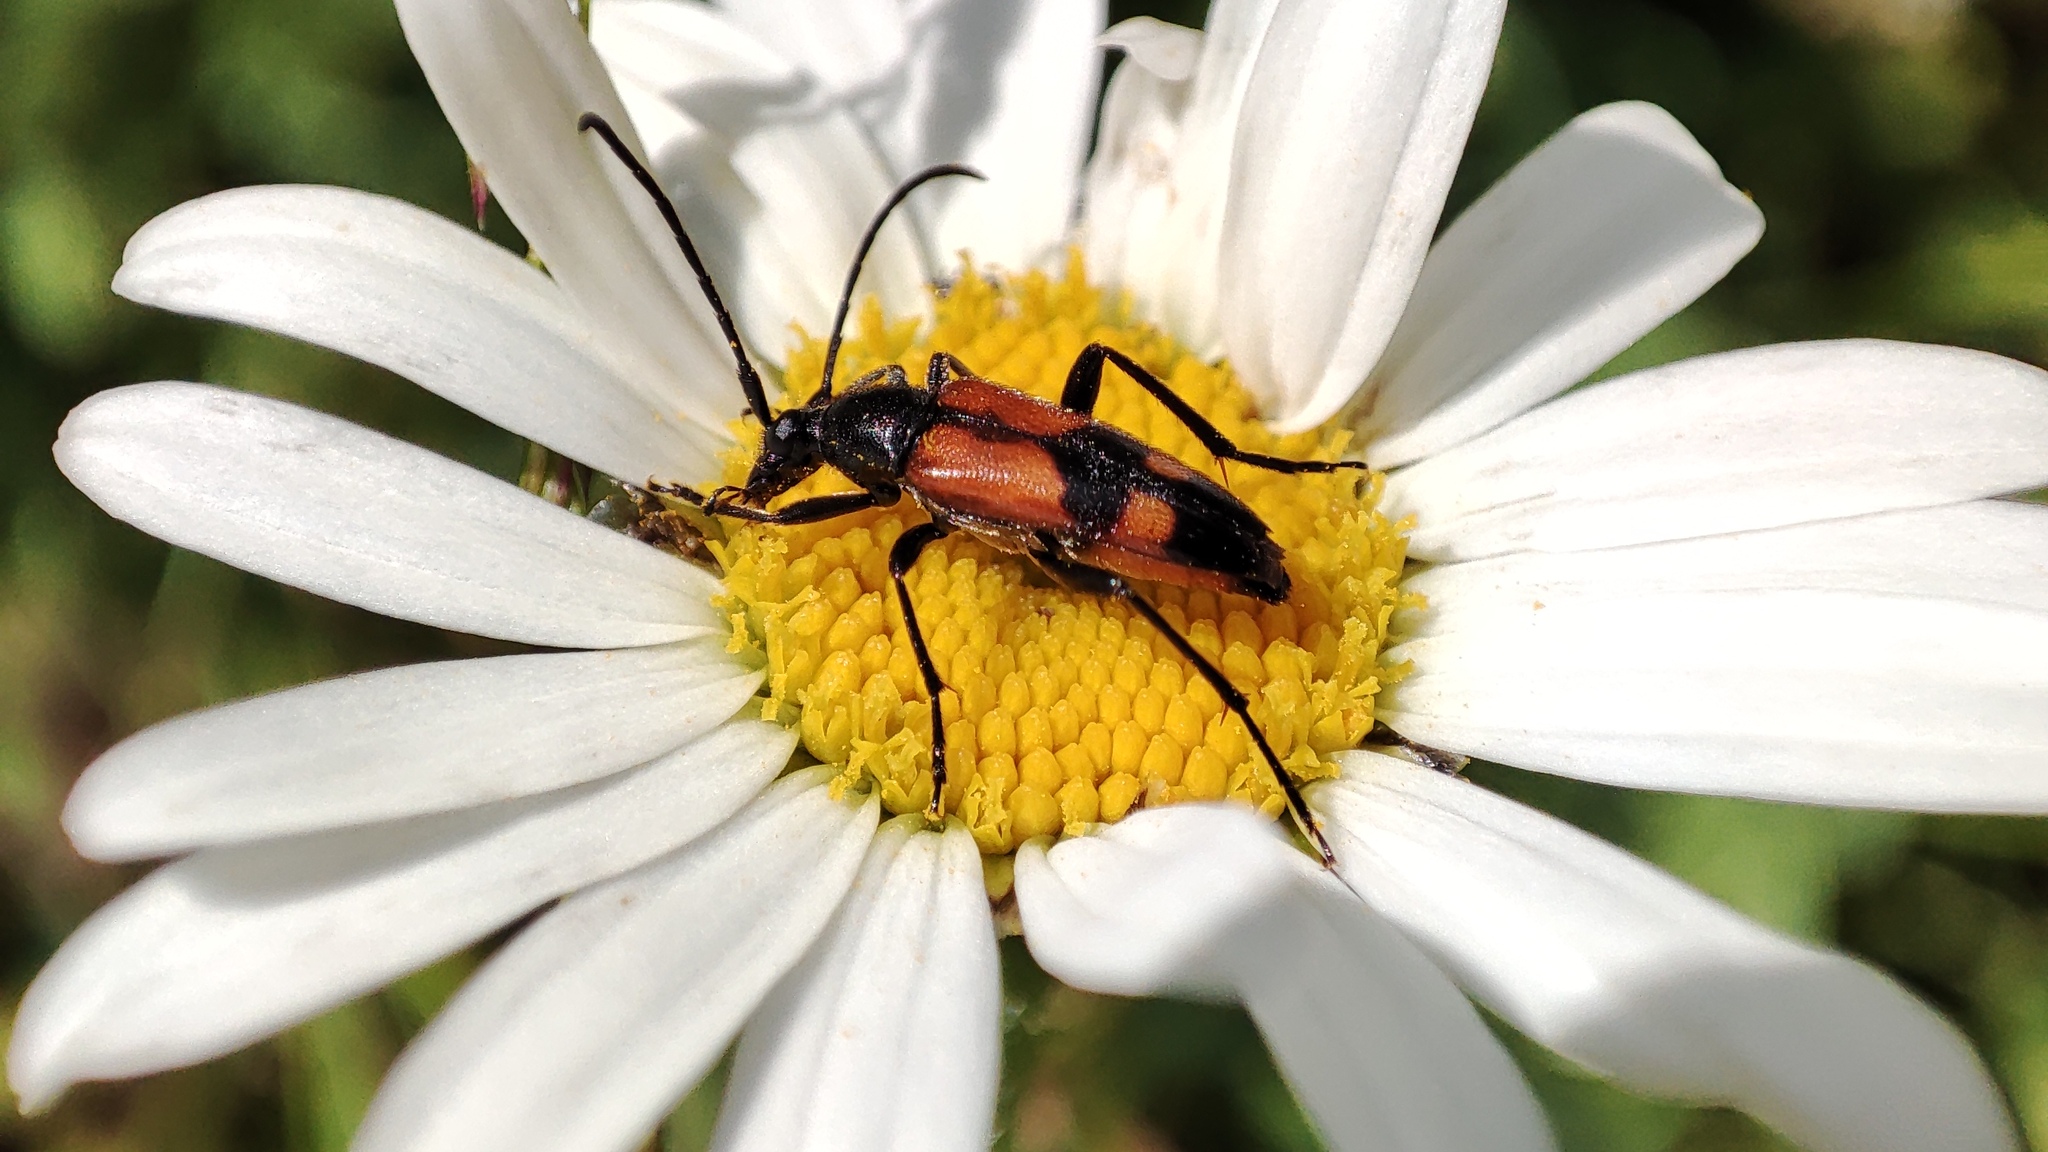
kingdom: Animalia
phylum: Arthropoda
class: Insecta
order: Coleoptera
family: Cerambycidae
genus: Stenurella
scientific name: Stenurella bifasciata
